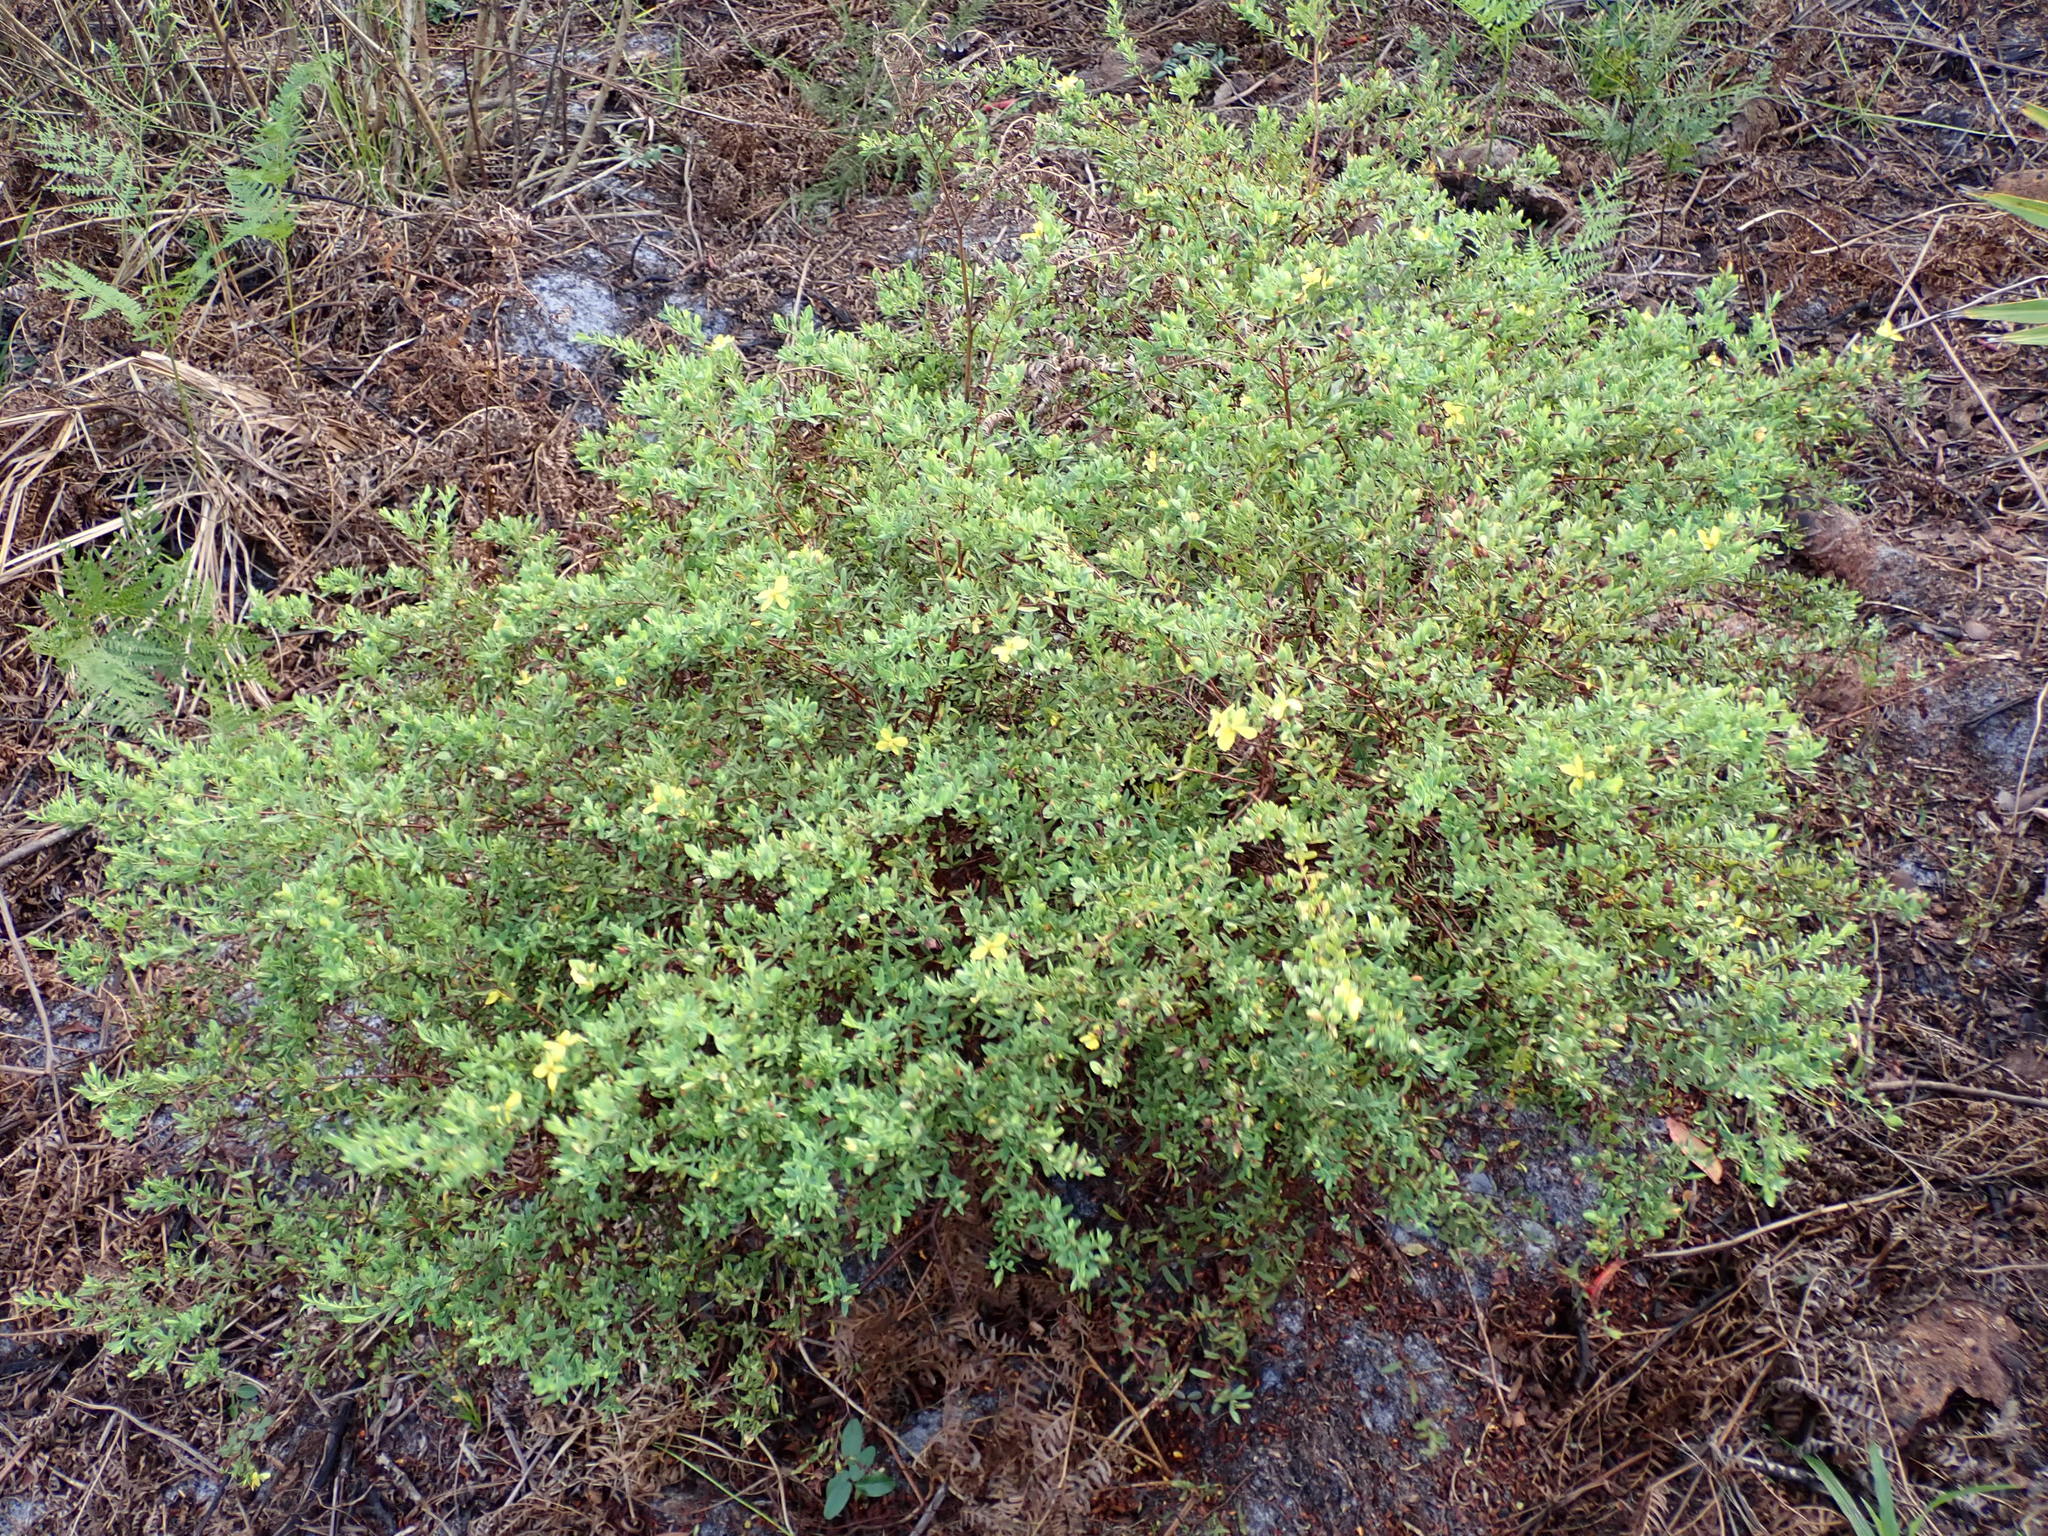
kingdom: Plantae
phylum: Tracheophyta
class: Magnoliopsida
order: Malpighiales
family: Hypericaceae
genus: Hypericum
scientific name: Hypericum hypericoides
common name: St. andrew's cross
